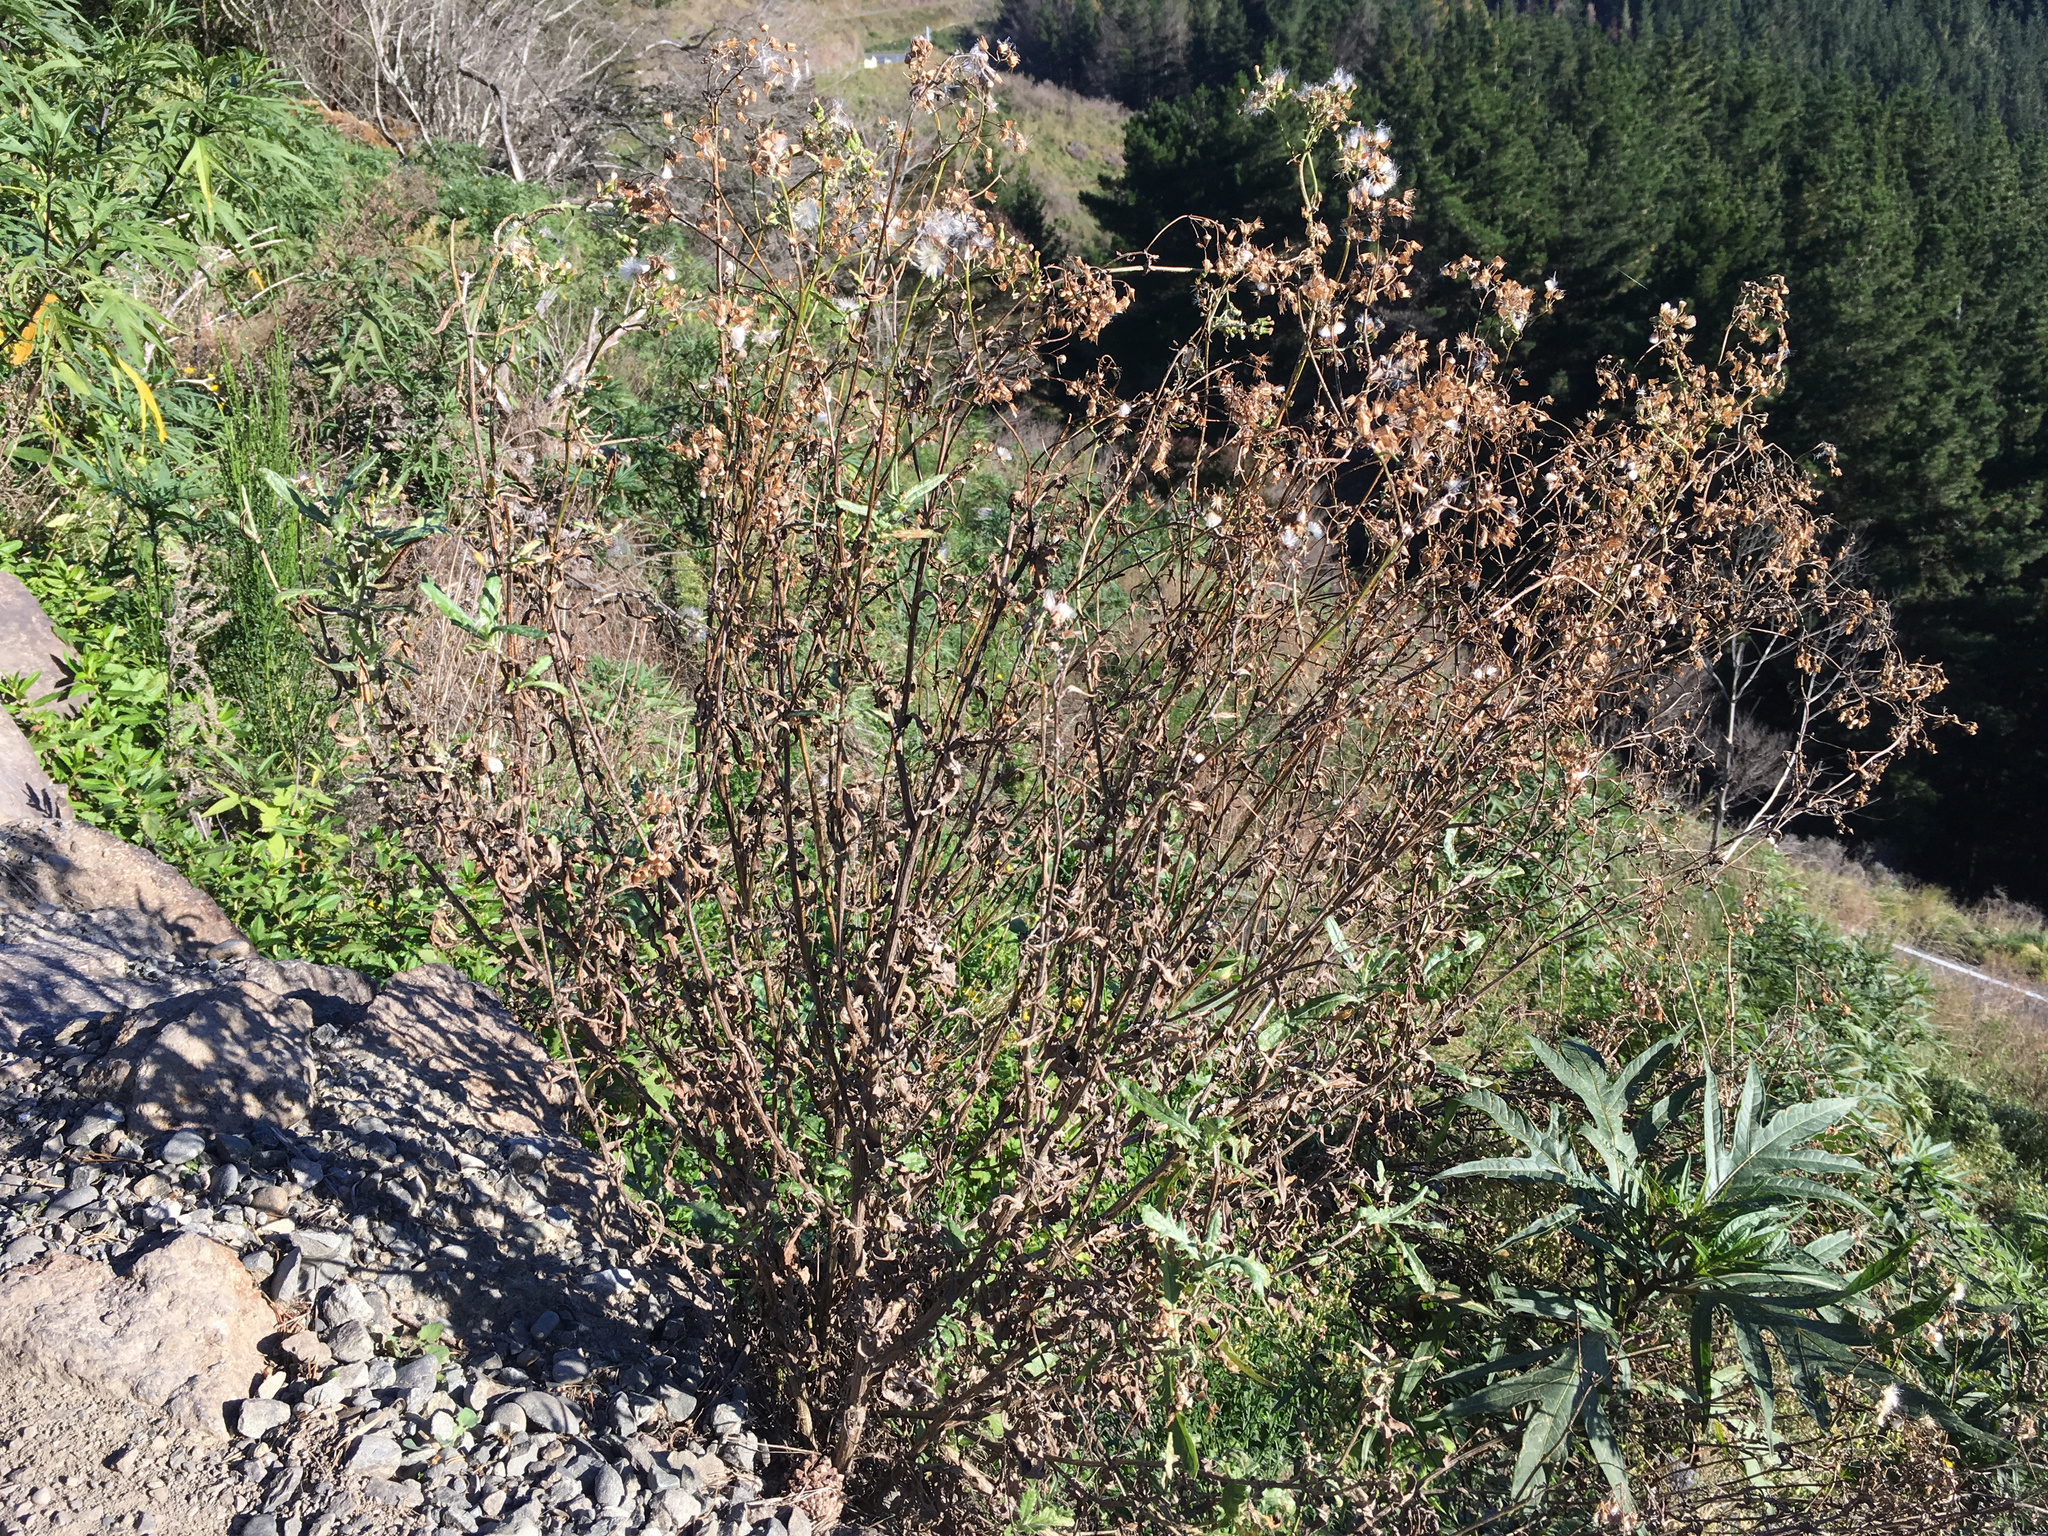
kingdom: Plantae
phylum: Tracheophyta
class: Magnoliopsida
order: Asterales
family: Asteraceae
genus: Senecio
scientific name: Senecio glomeratus
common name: Cutleaf burnweed
